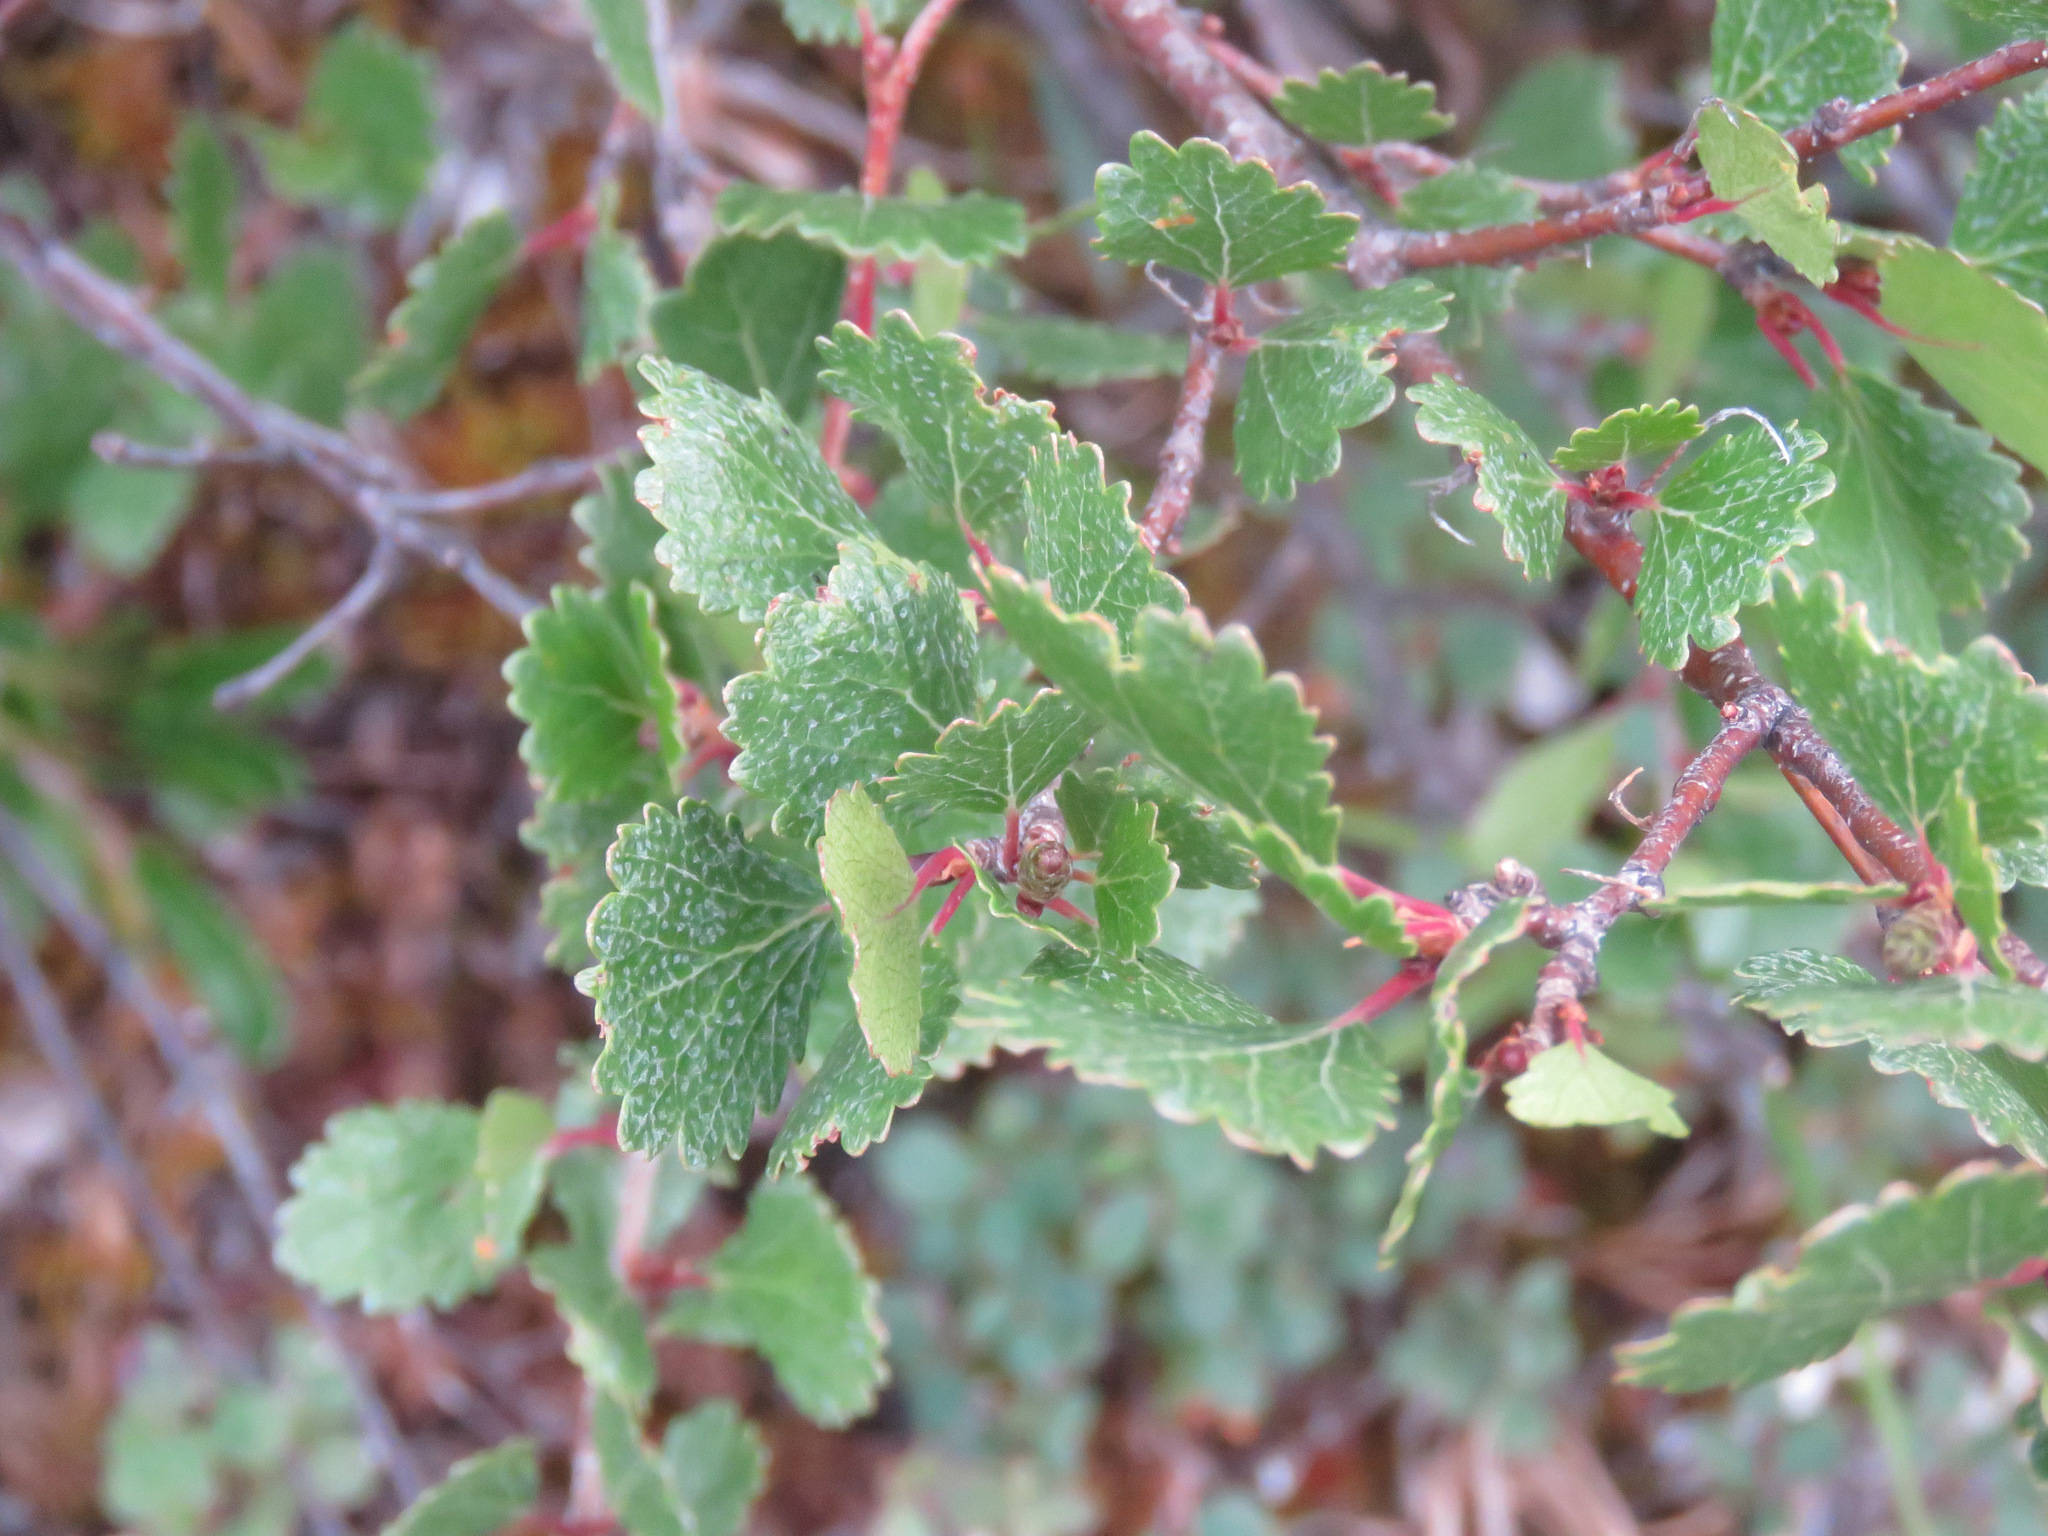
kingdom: Plantae
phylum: Tracheophyta
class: Magnoliopsida
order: Fagales
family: Betulaceae
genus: Betula
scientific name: Betula glandulosa
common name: Dwarf birch
